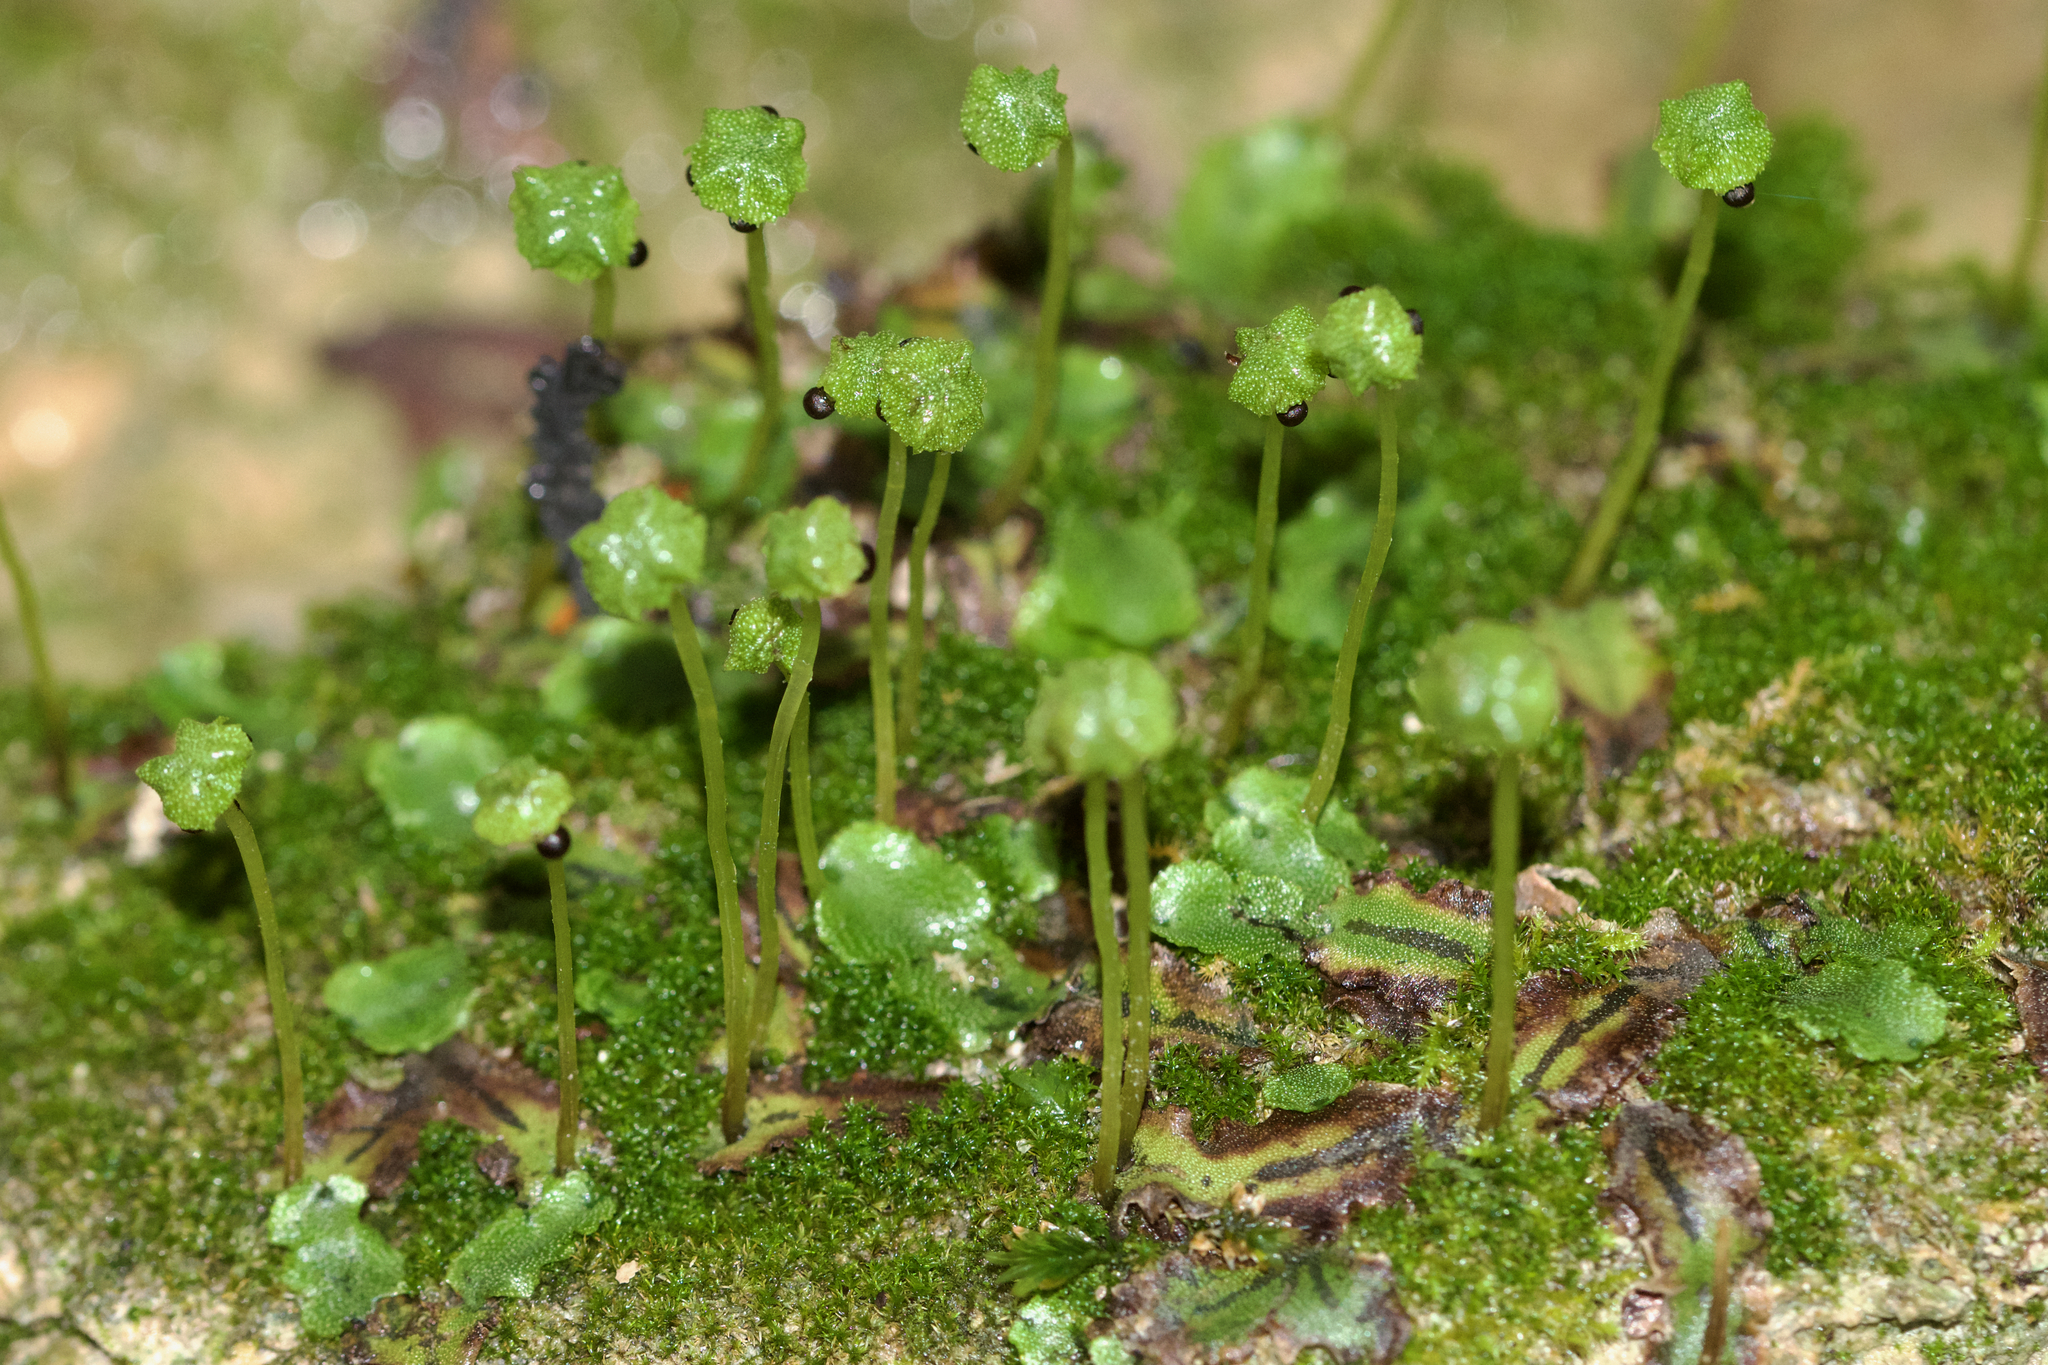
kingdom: Plantae
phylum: Marchantiophyta
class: Marchantiopsida
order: Marchantiales
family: Marchantiaceae
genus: Marchantia
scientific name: Marchantia quadrata
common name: Narrow mushroom-headed liverwort
